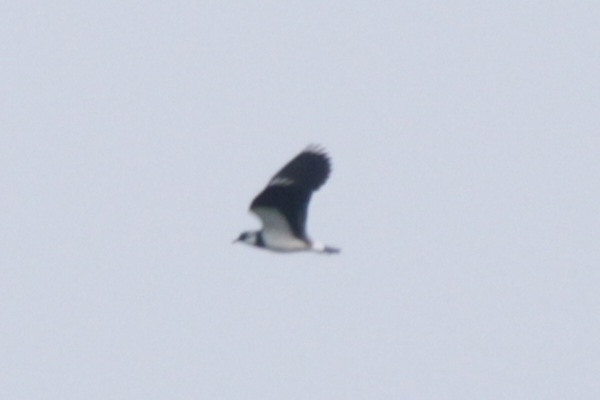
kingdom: Animalia
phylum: Chordata
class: Aves
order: Charadriiformes
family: Charadriidae
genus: Vanellus
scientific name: Vanellus vanellus
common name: Northern lapwing
